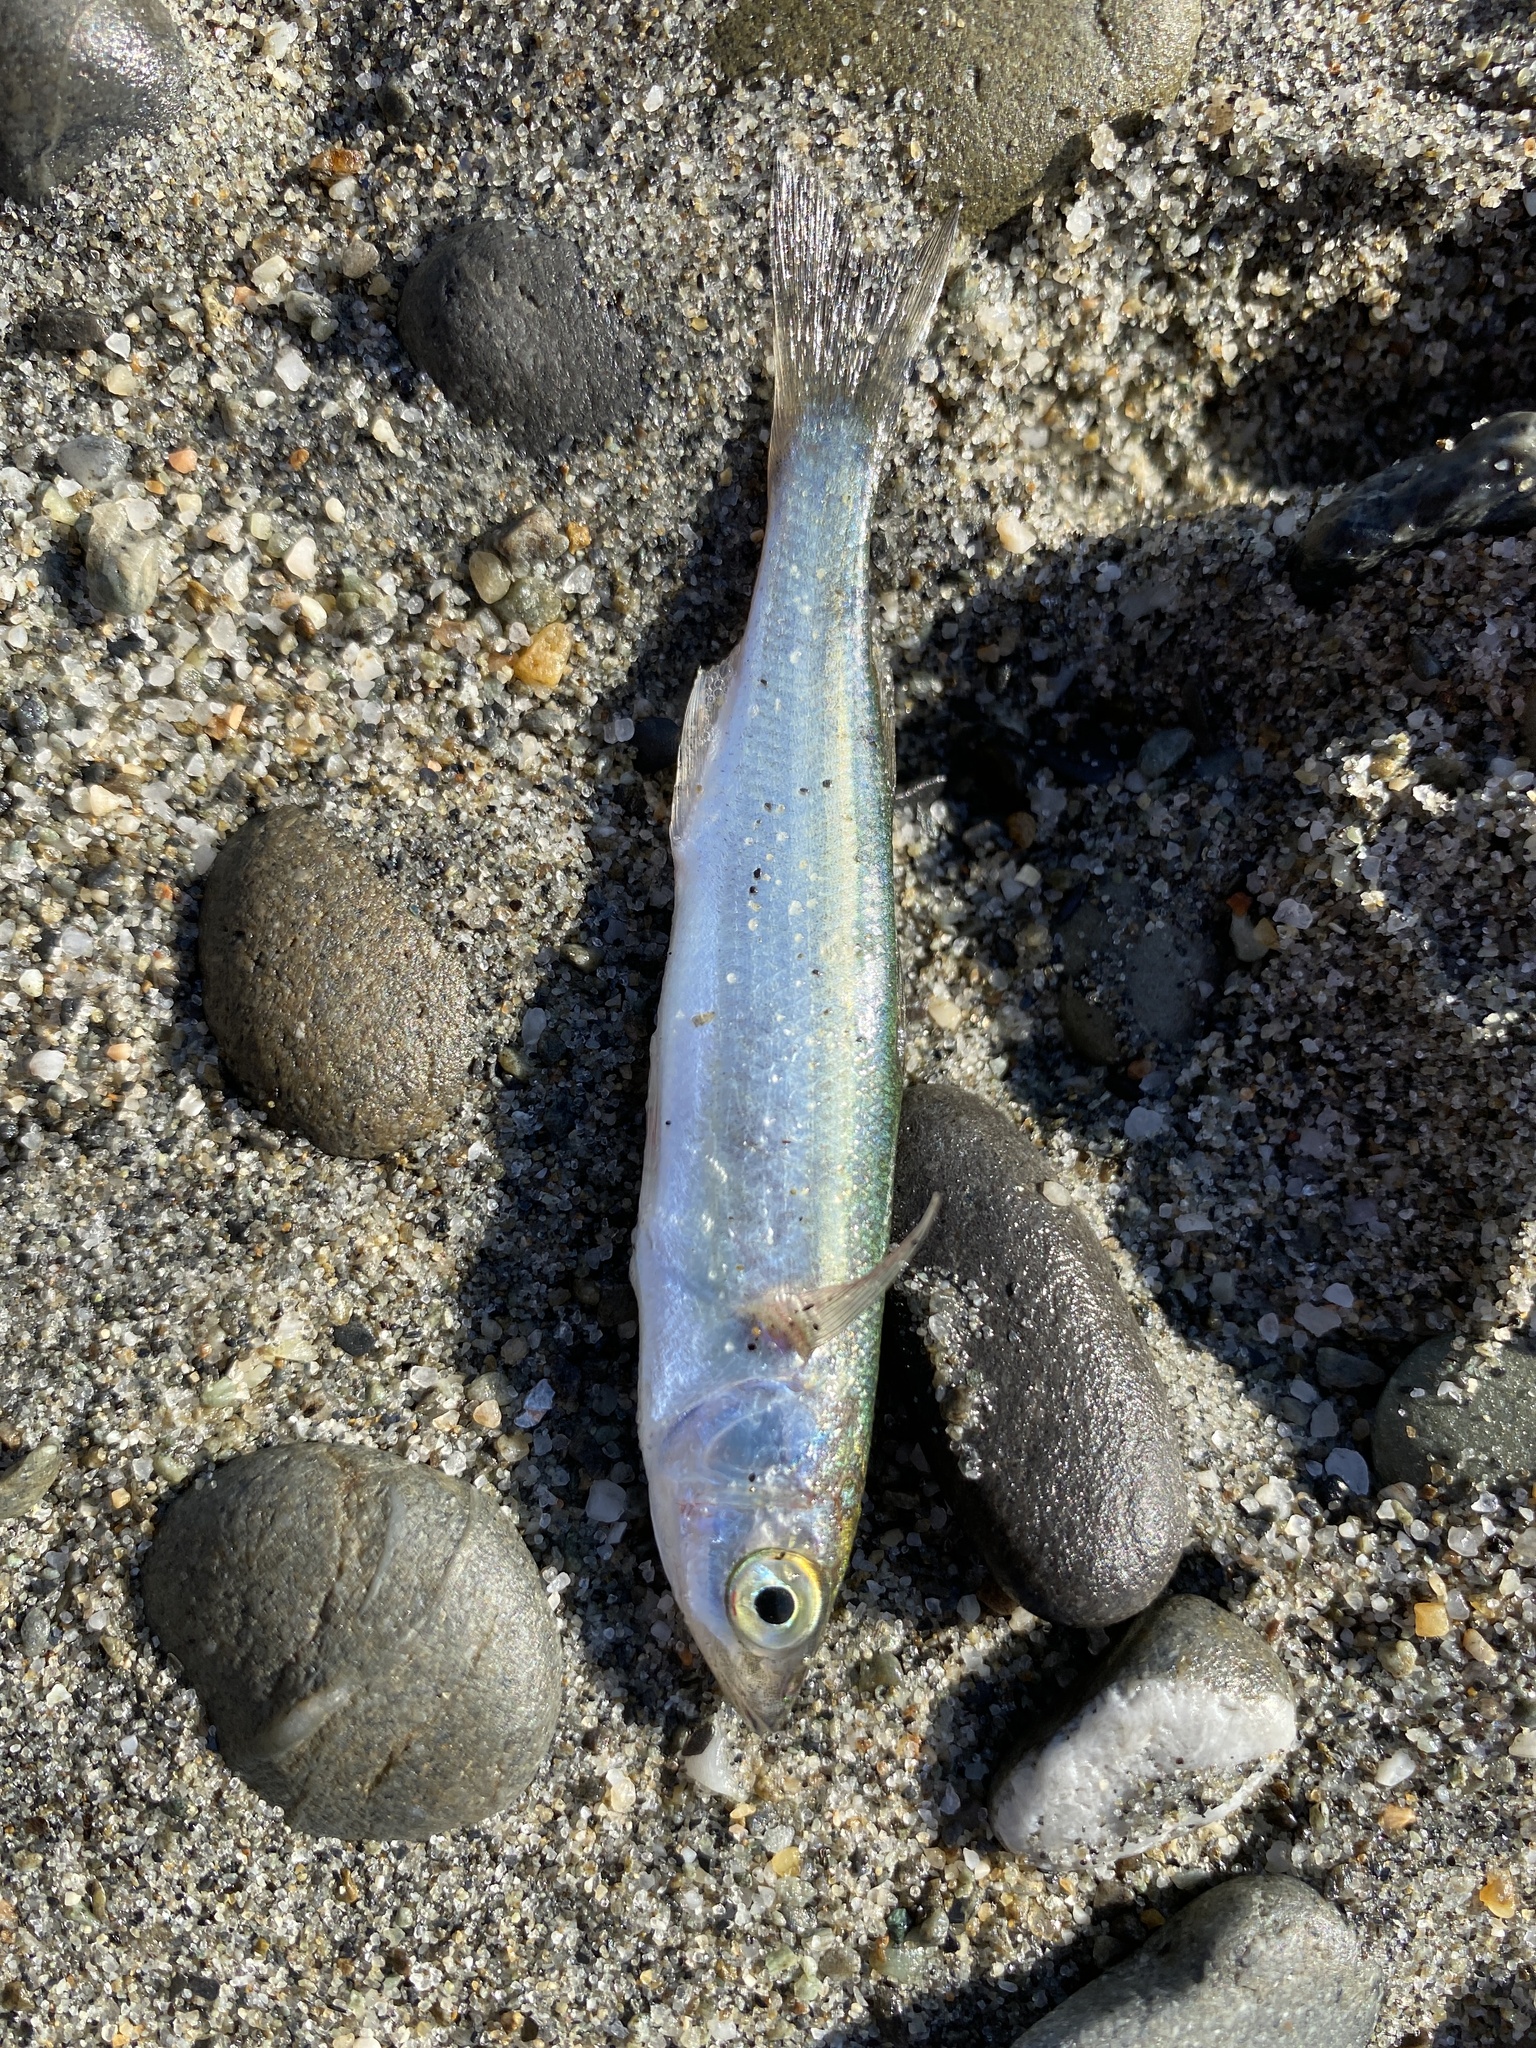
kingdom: Animalia
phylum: Chordata
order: Mugiliformes
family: Mugilidae
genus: Aldrichetta
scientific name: Aldrichetta forsteri
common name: Yellow-eye mullet
